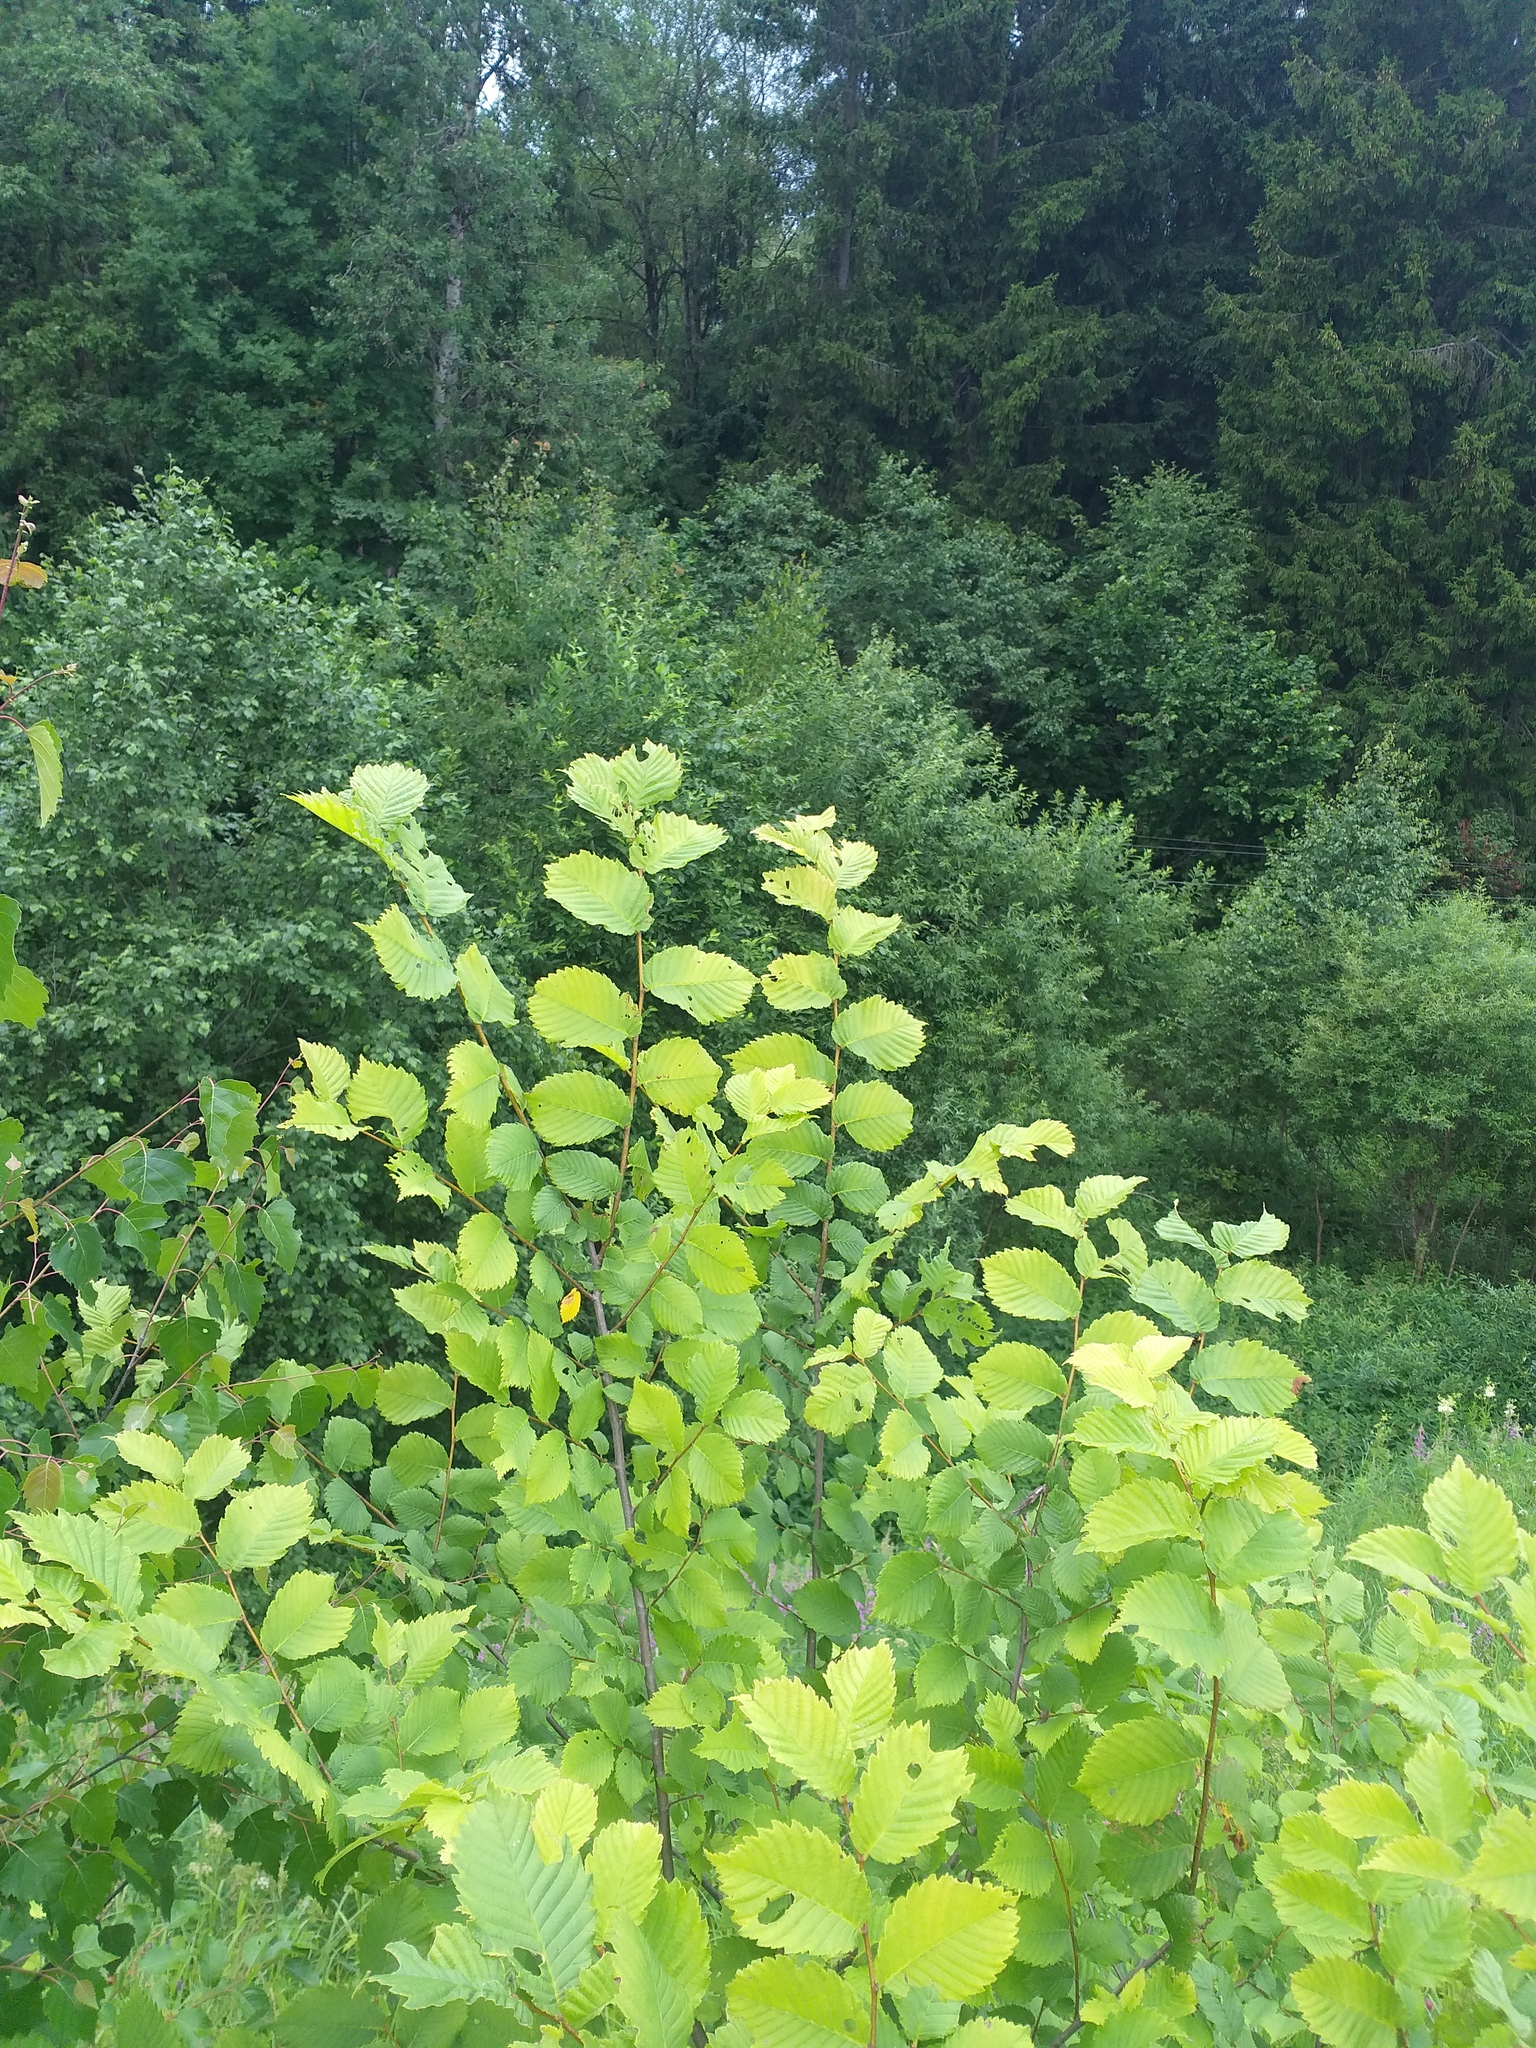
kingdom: Plantae
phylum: Tracheophyta
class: Magnoliopsida
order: Rosales
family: Ulmaceae
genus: Ulmus
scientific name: Ulmus laevis
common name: European white-elm
